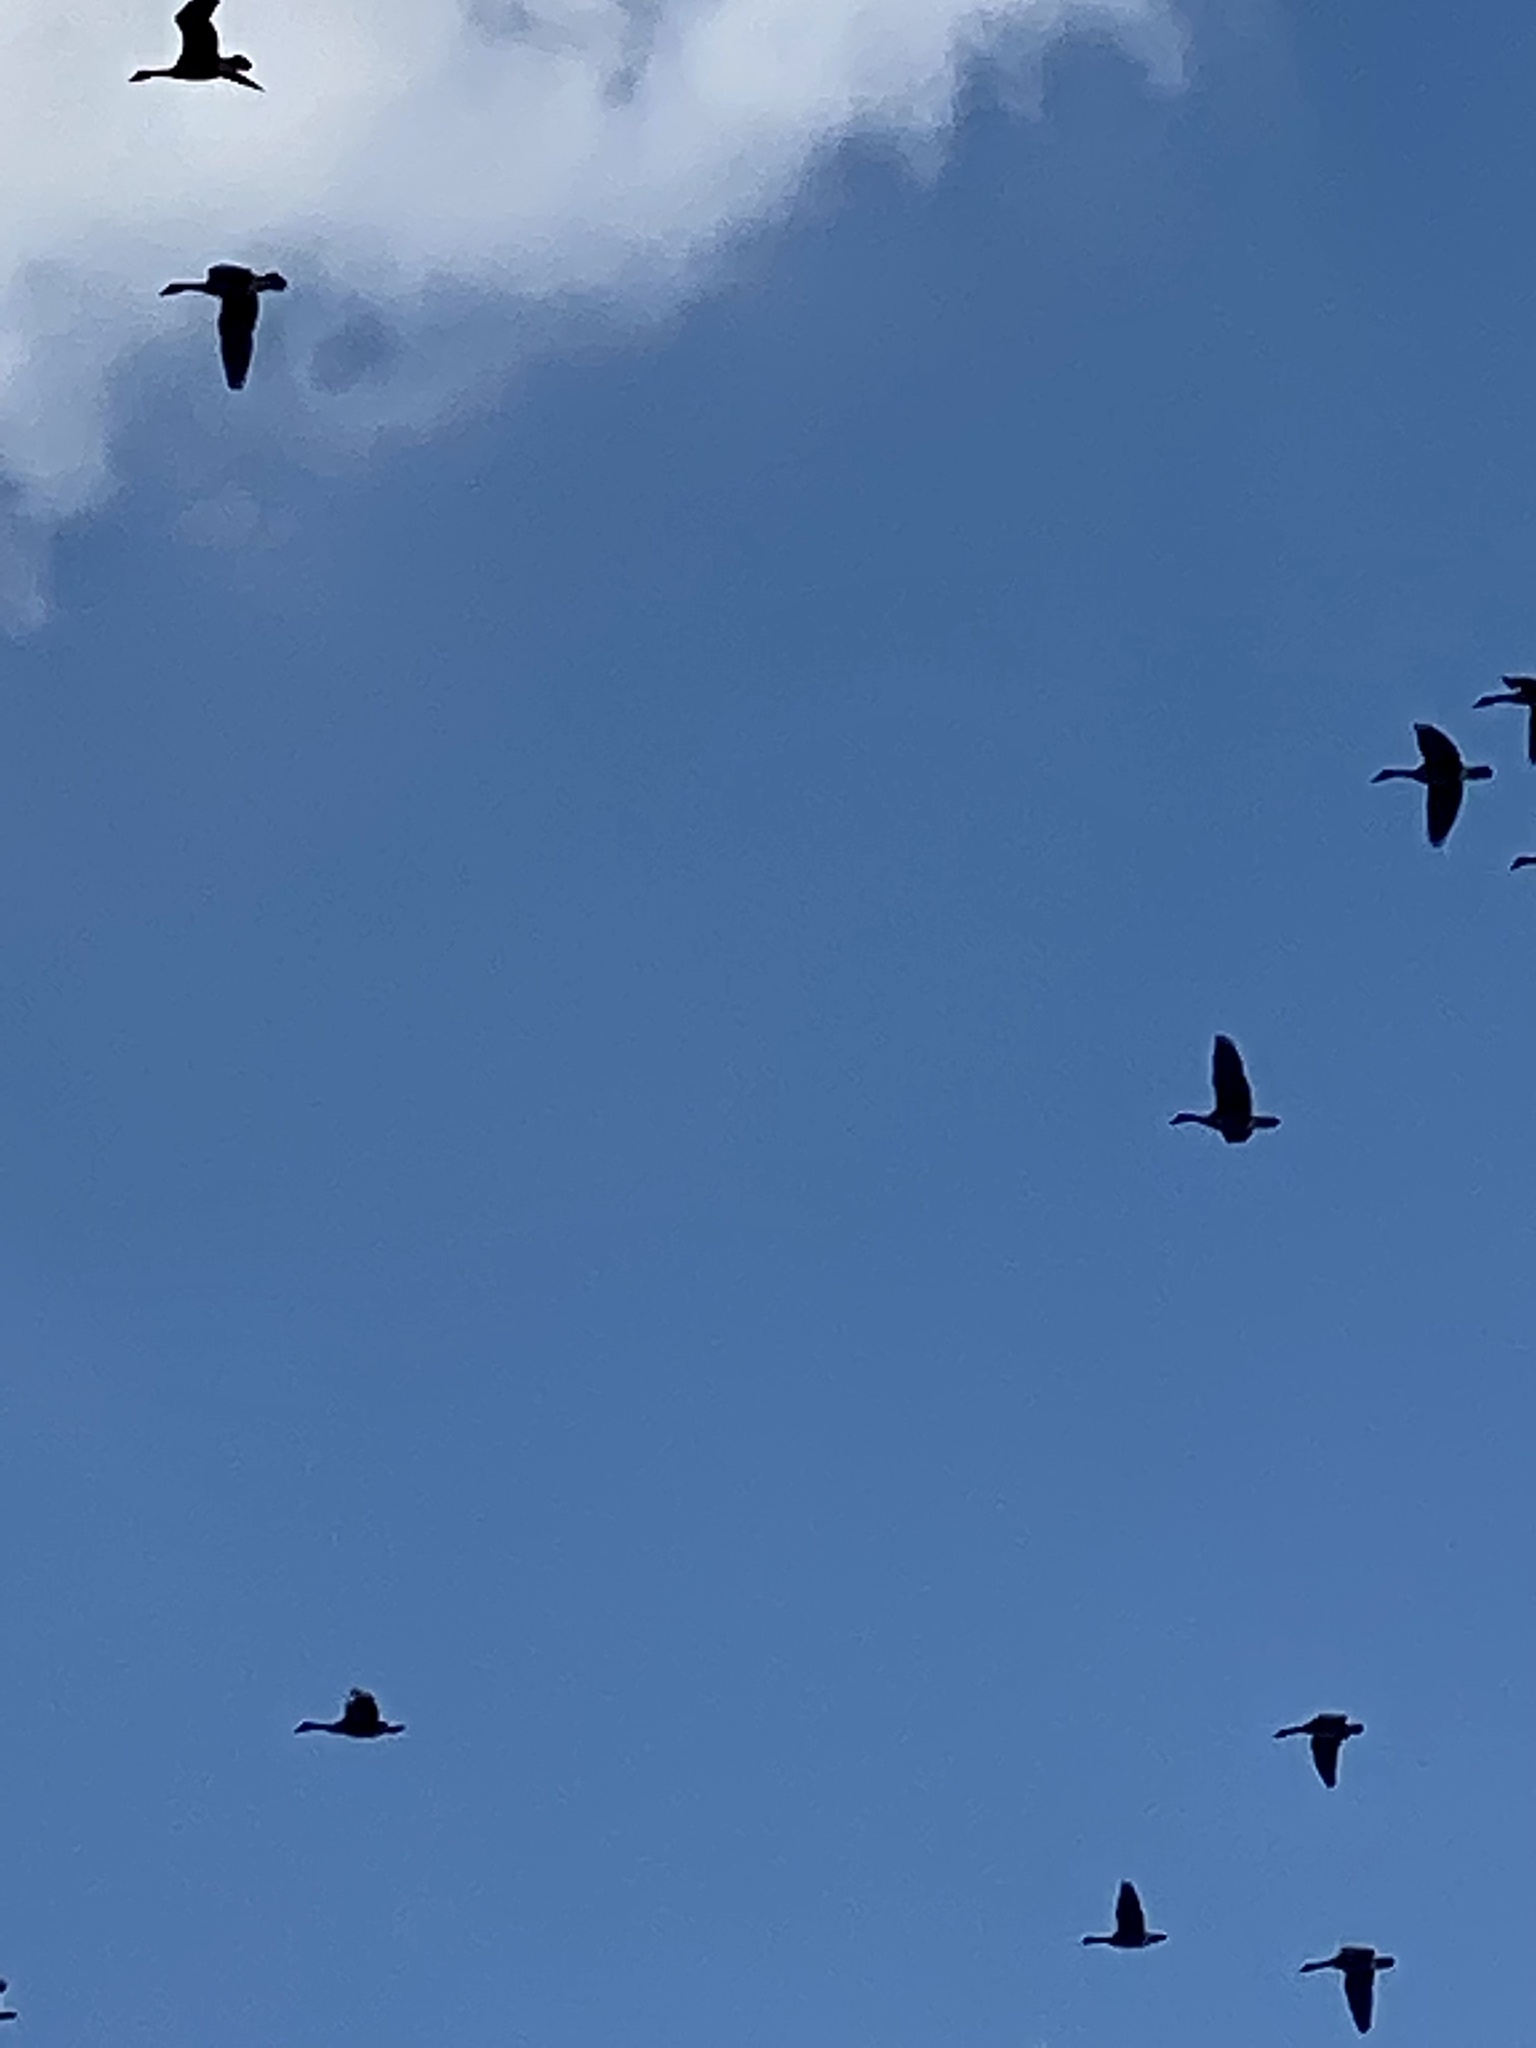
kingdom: Animalia
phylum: Chordata
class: Aves
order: Anseriformes
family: Anatidae
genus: Branta
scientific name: Branta canadensis
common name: Canada goose
